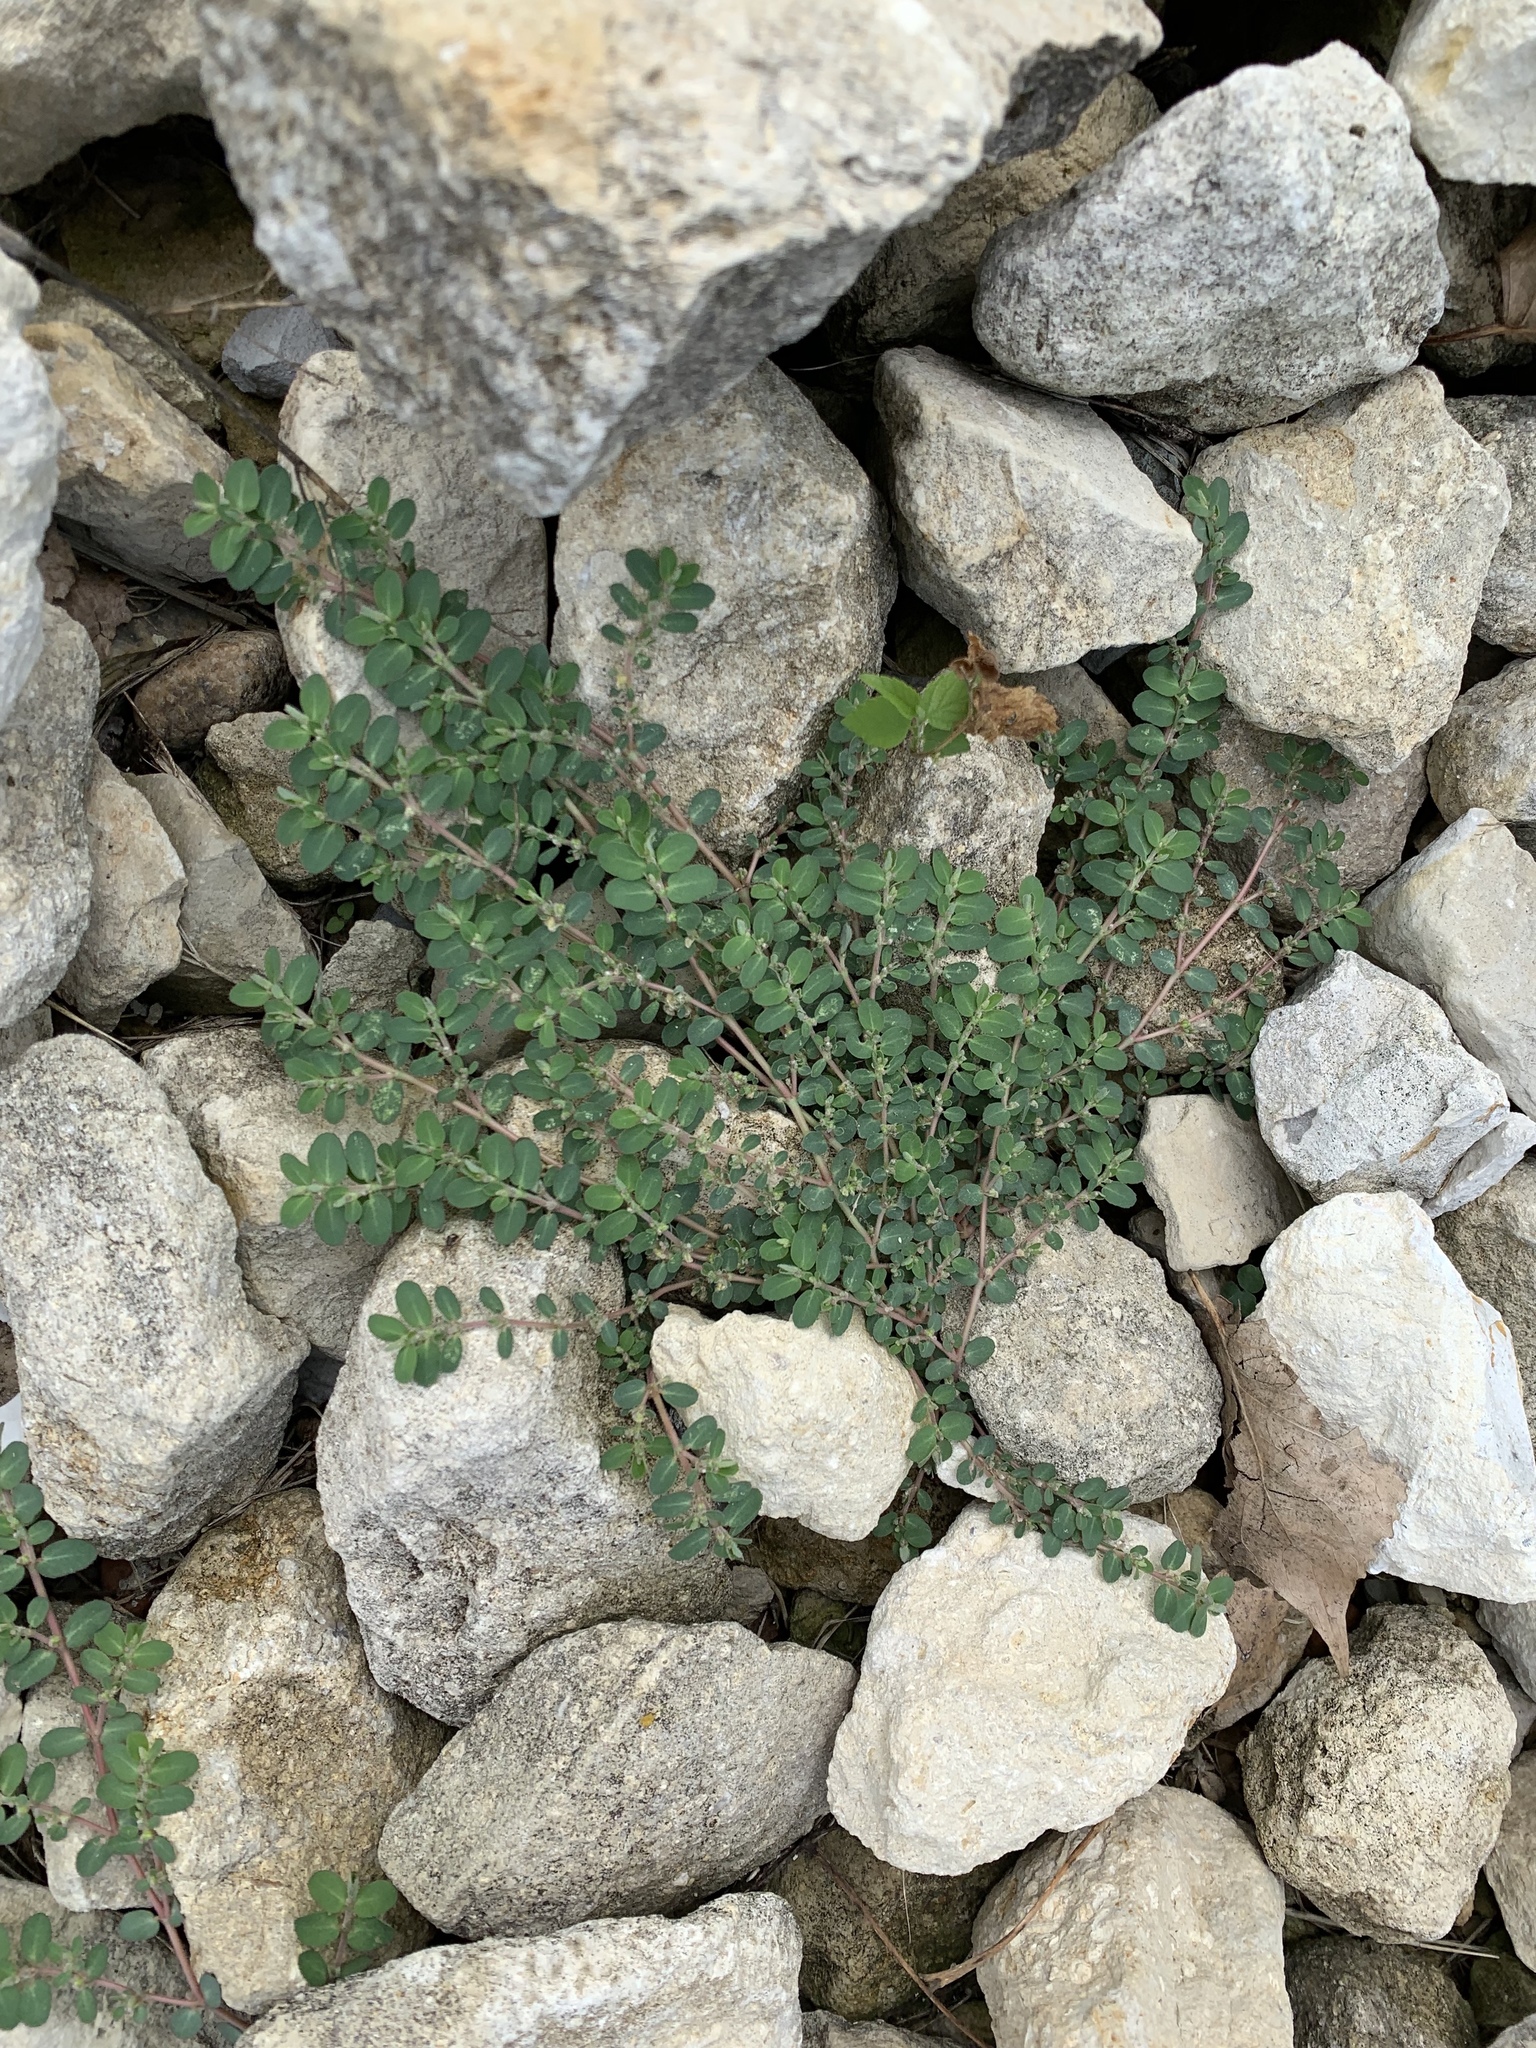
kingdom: Plantae
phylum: Tracheophyta
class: Magnoliopsida
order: Malpighiales
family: Euphorbiaceae
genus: Euphorbia
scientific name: Euphorbia prostrata
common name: Prostrate sandmat
